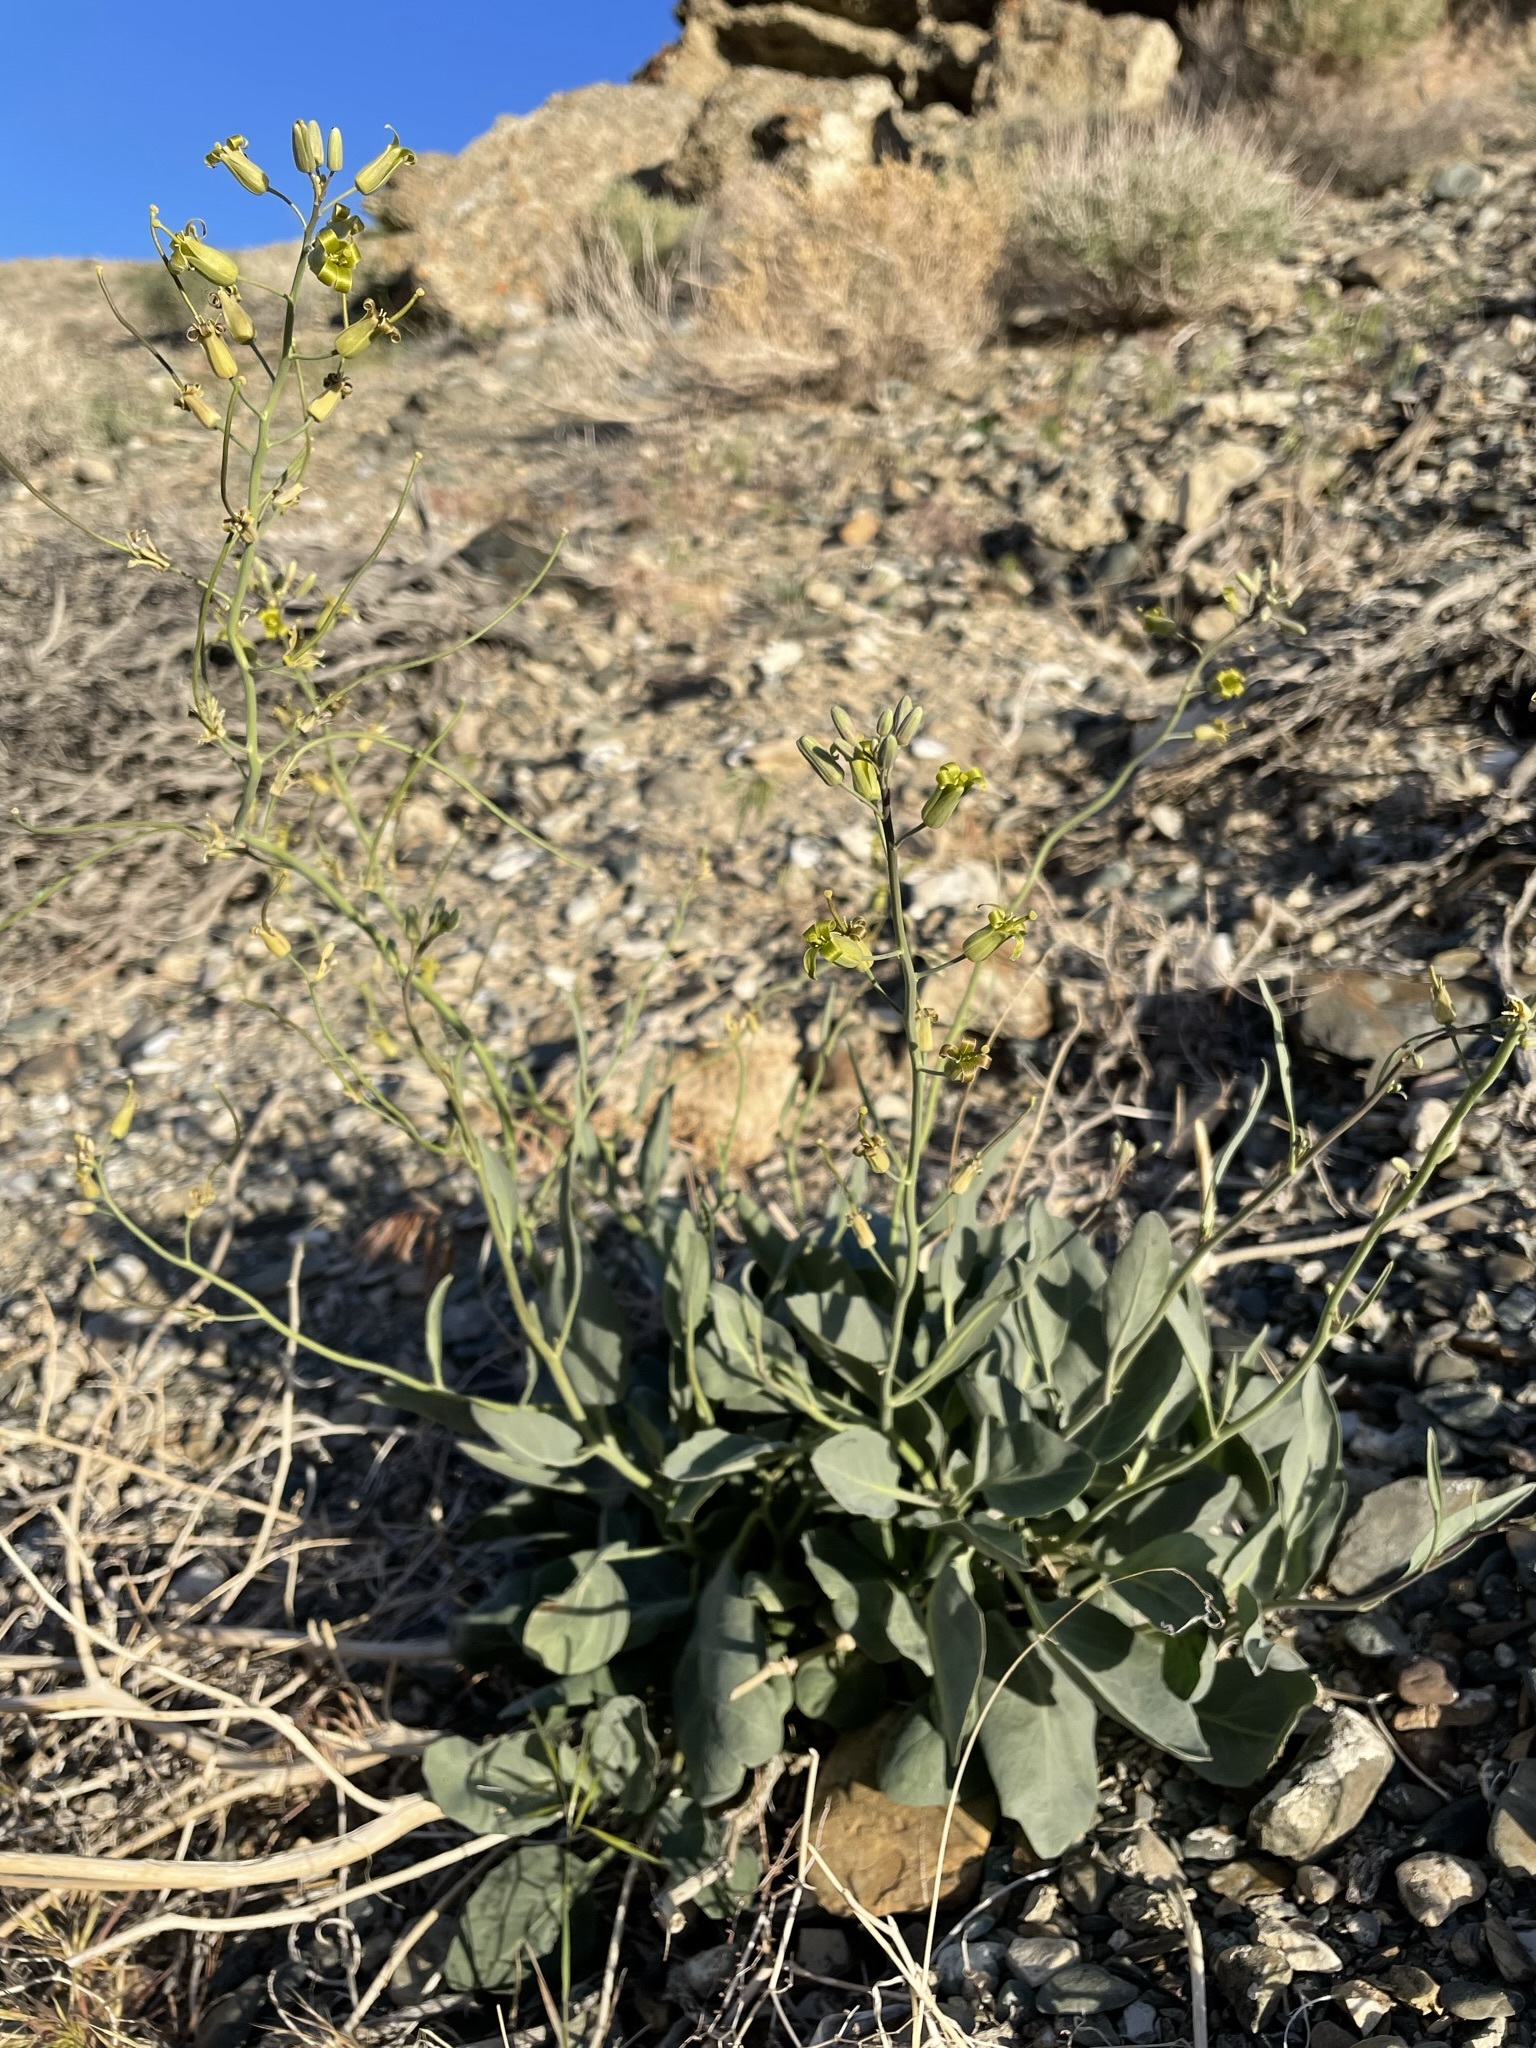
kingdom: Plantae
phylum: Tracheophyta
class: Magnoliopsida
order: Brassicales
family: Brassicaceae
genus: Streptanthus
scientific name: Streptanthus glaucus
